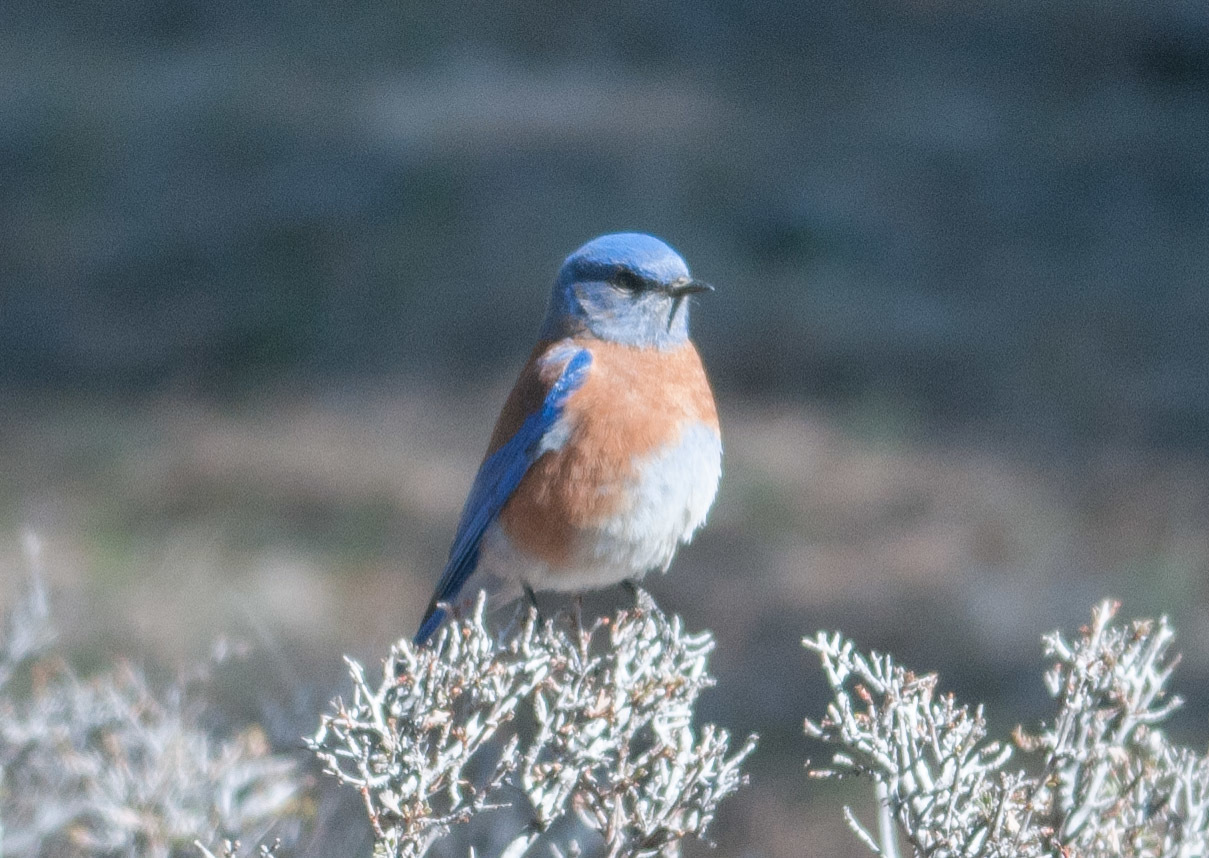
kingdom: Animalia
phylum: Chordata
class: Aves
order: Passeriformes
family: Turdidae
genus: Sialia
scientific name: Sialia mexicana
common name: Western bluebird
